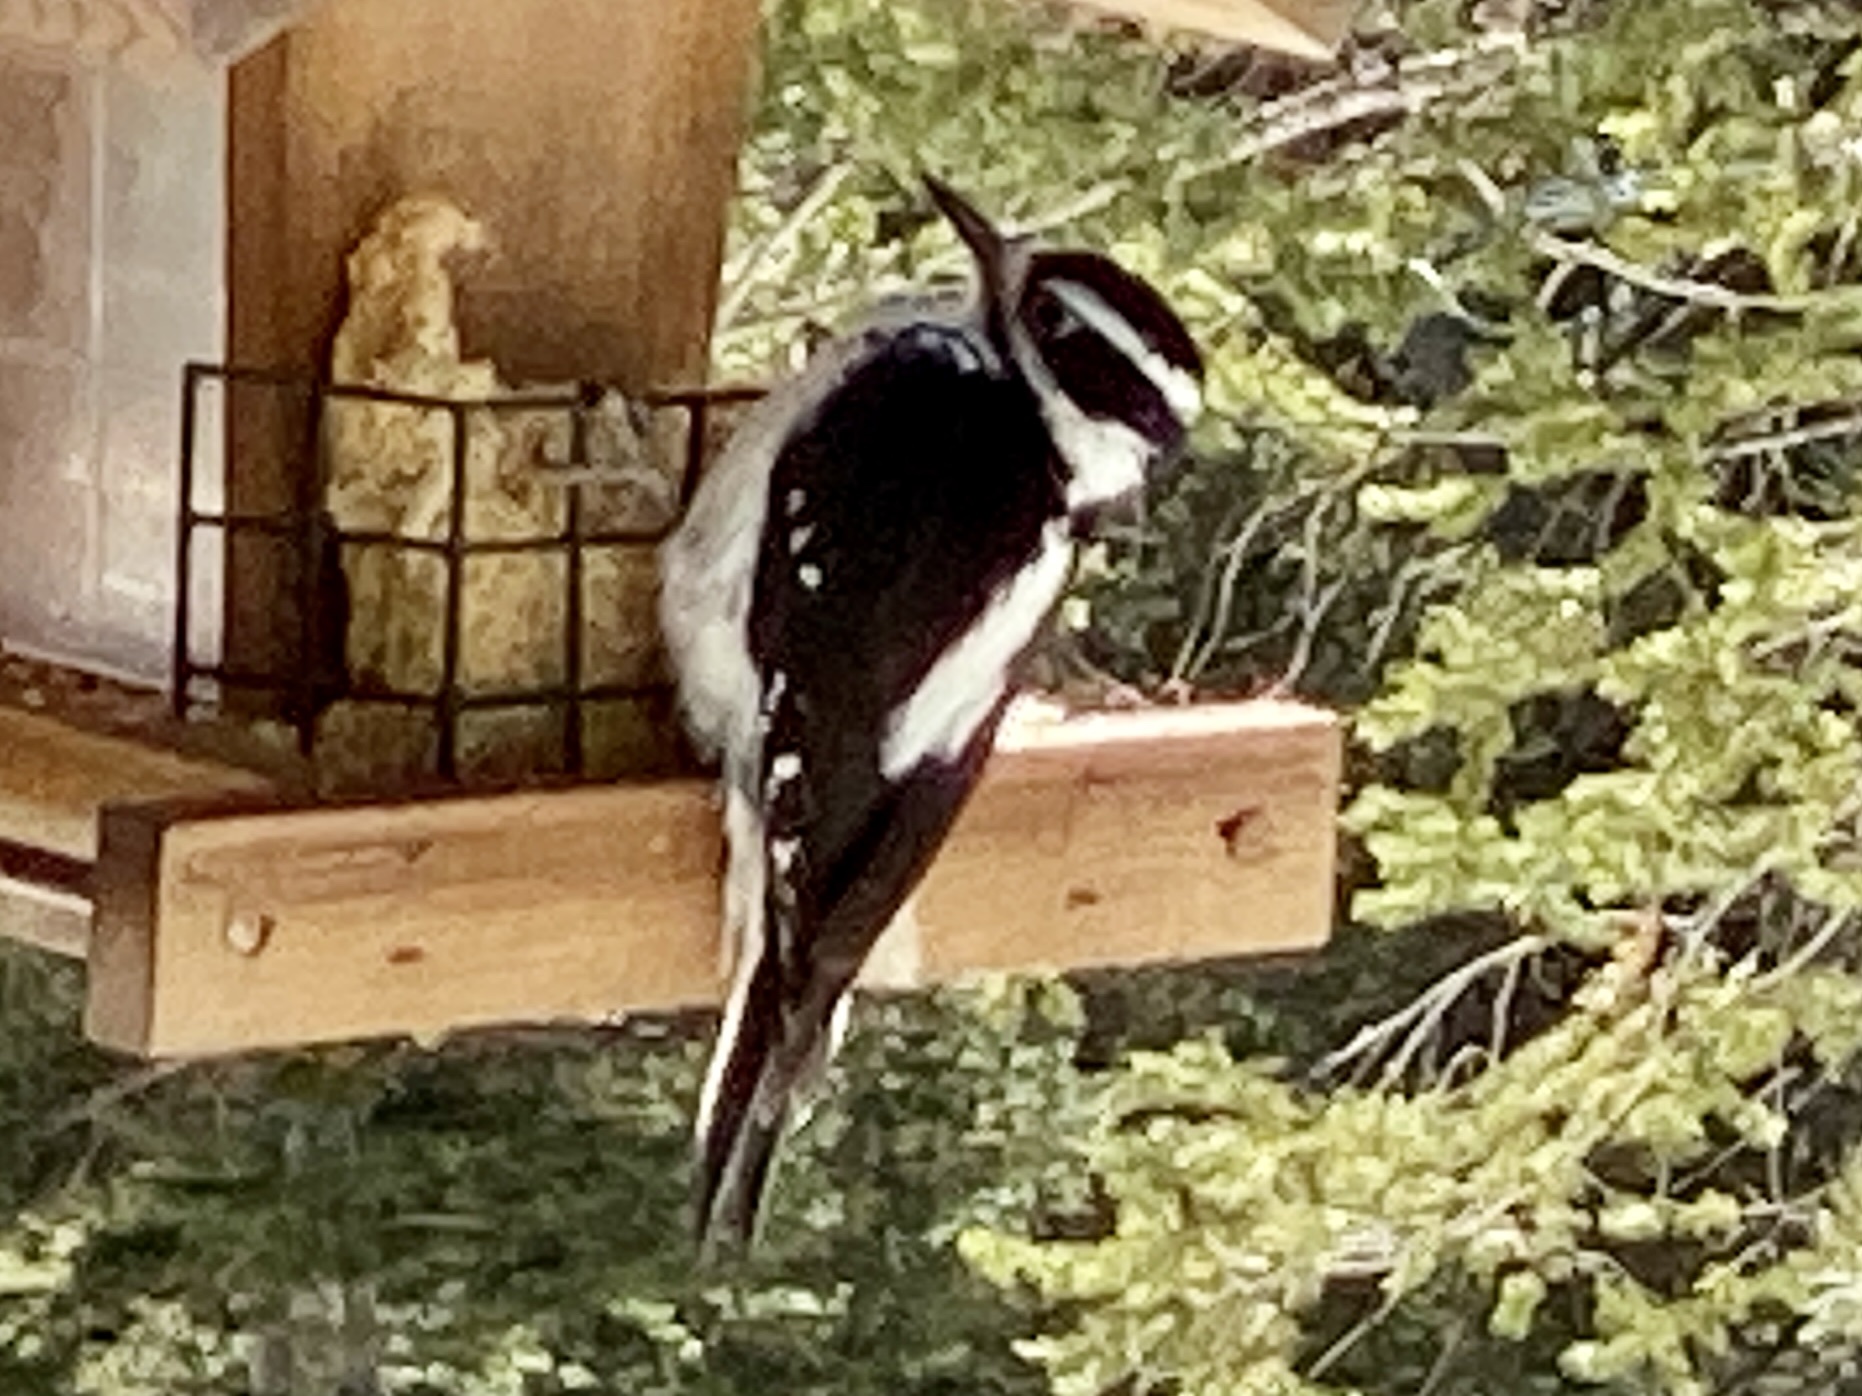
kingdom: Animalia
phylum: Chordata
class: Aves
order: Piciformes
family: Picidae
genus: Leuconotopicus
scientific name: Leuconotopicus villosus
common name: Hairy woodpecker
